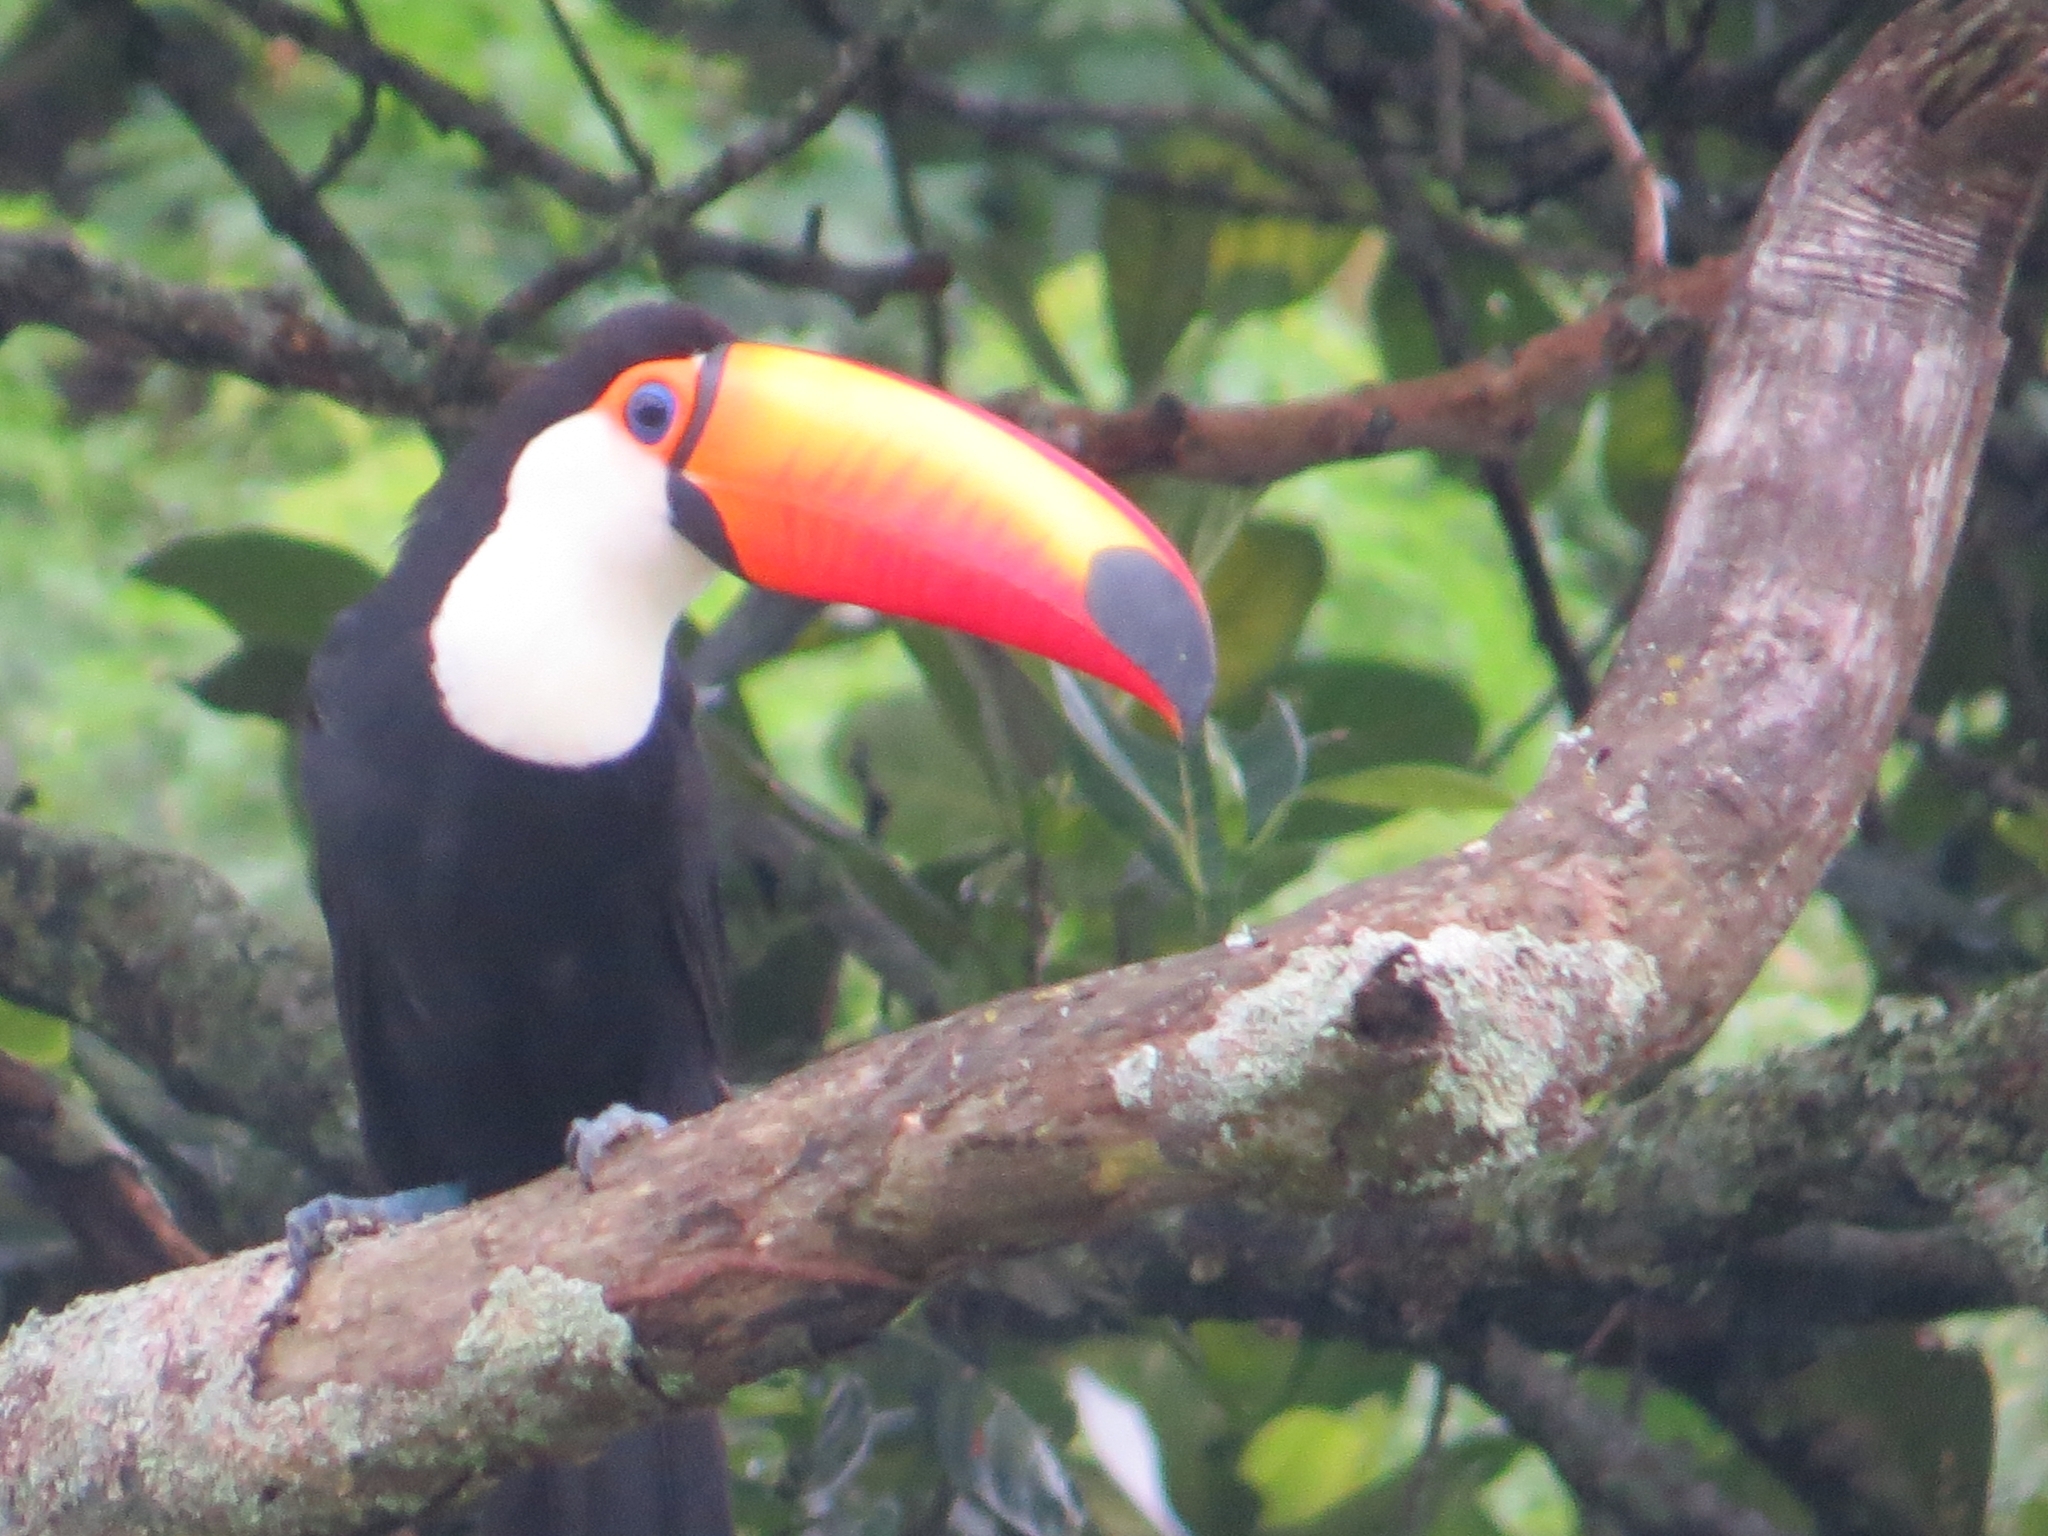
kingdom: Animalia
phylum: Chordata
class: Aves
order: Piciformes
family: Ramphastidae
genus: Ramphastos
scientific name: Ramphastos toco
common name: Toco toucan
